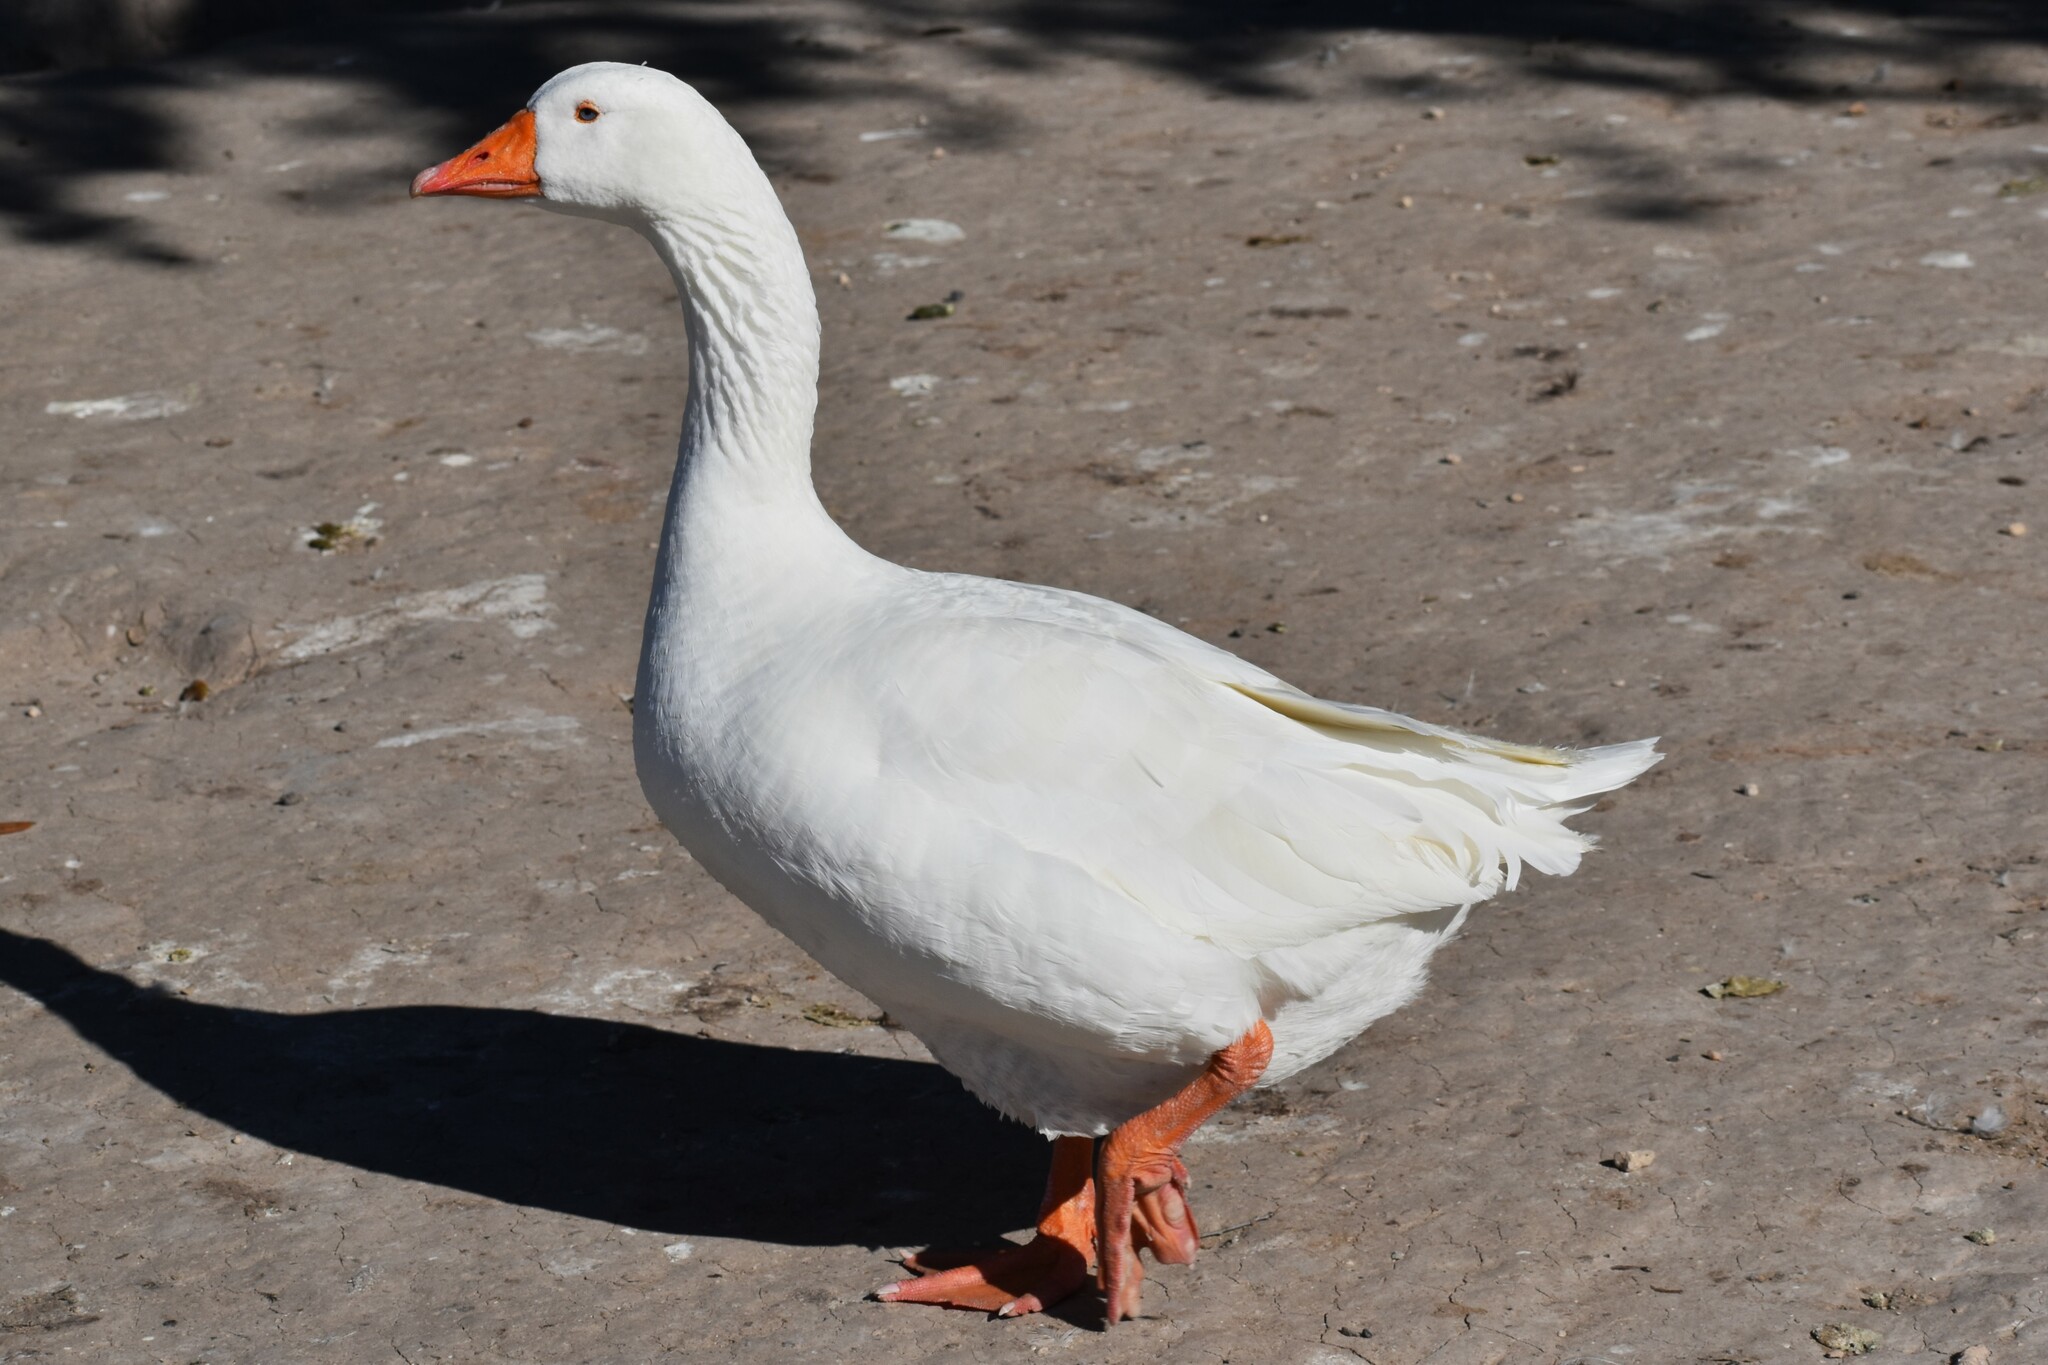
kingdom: Animalia
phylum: Chordata
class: Aves
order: Anseriformes
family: Anatidae
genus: Anser
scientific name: Anser anser
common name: Greylag goose
